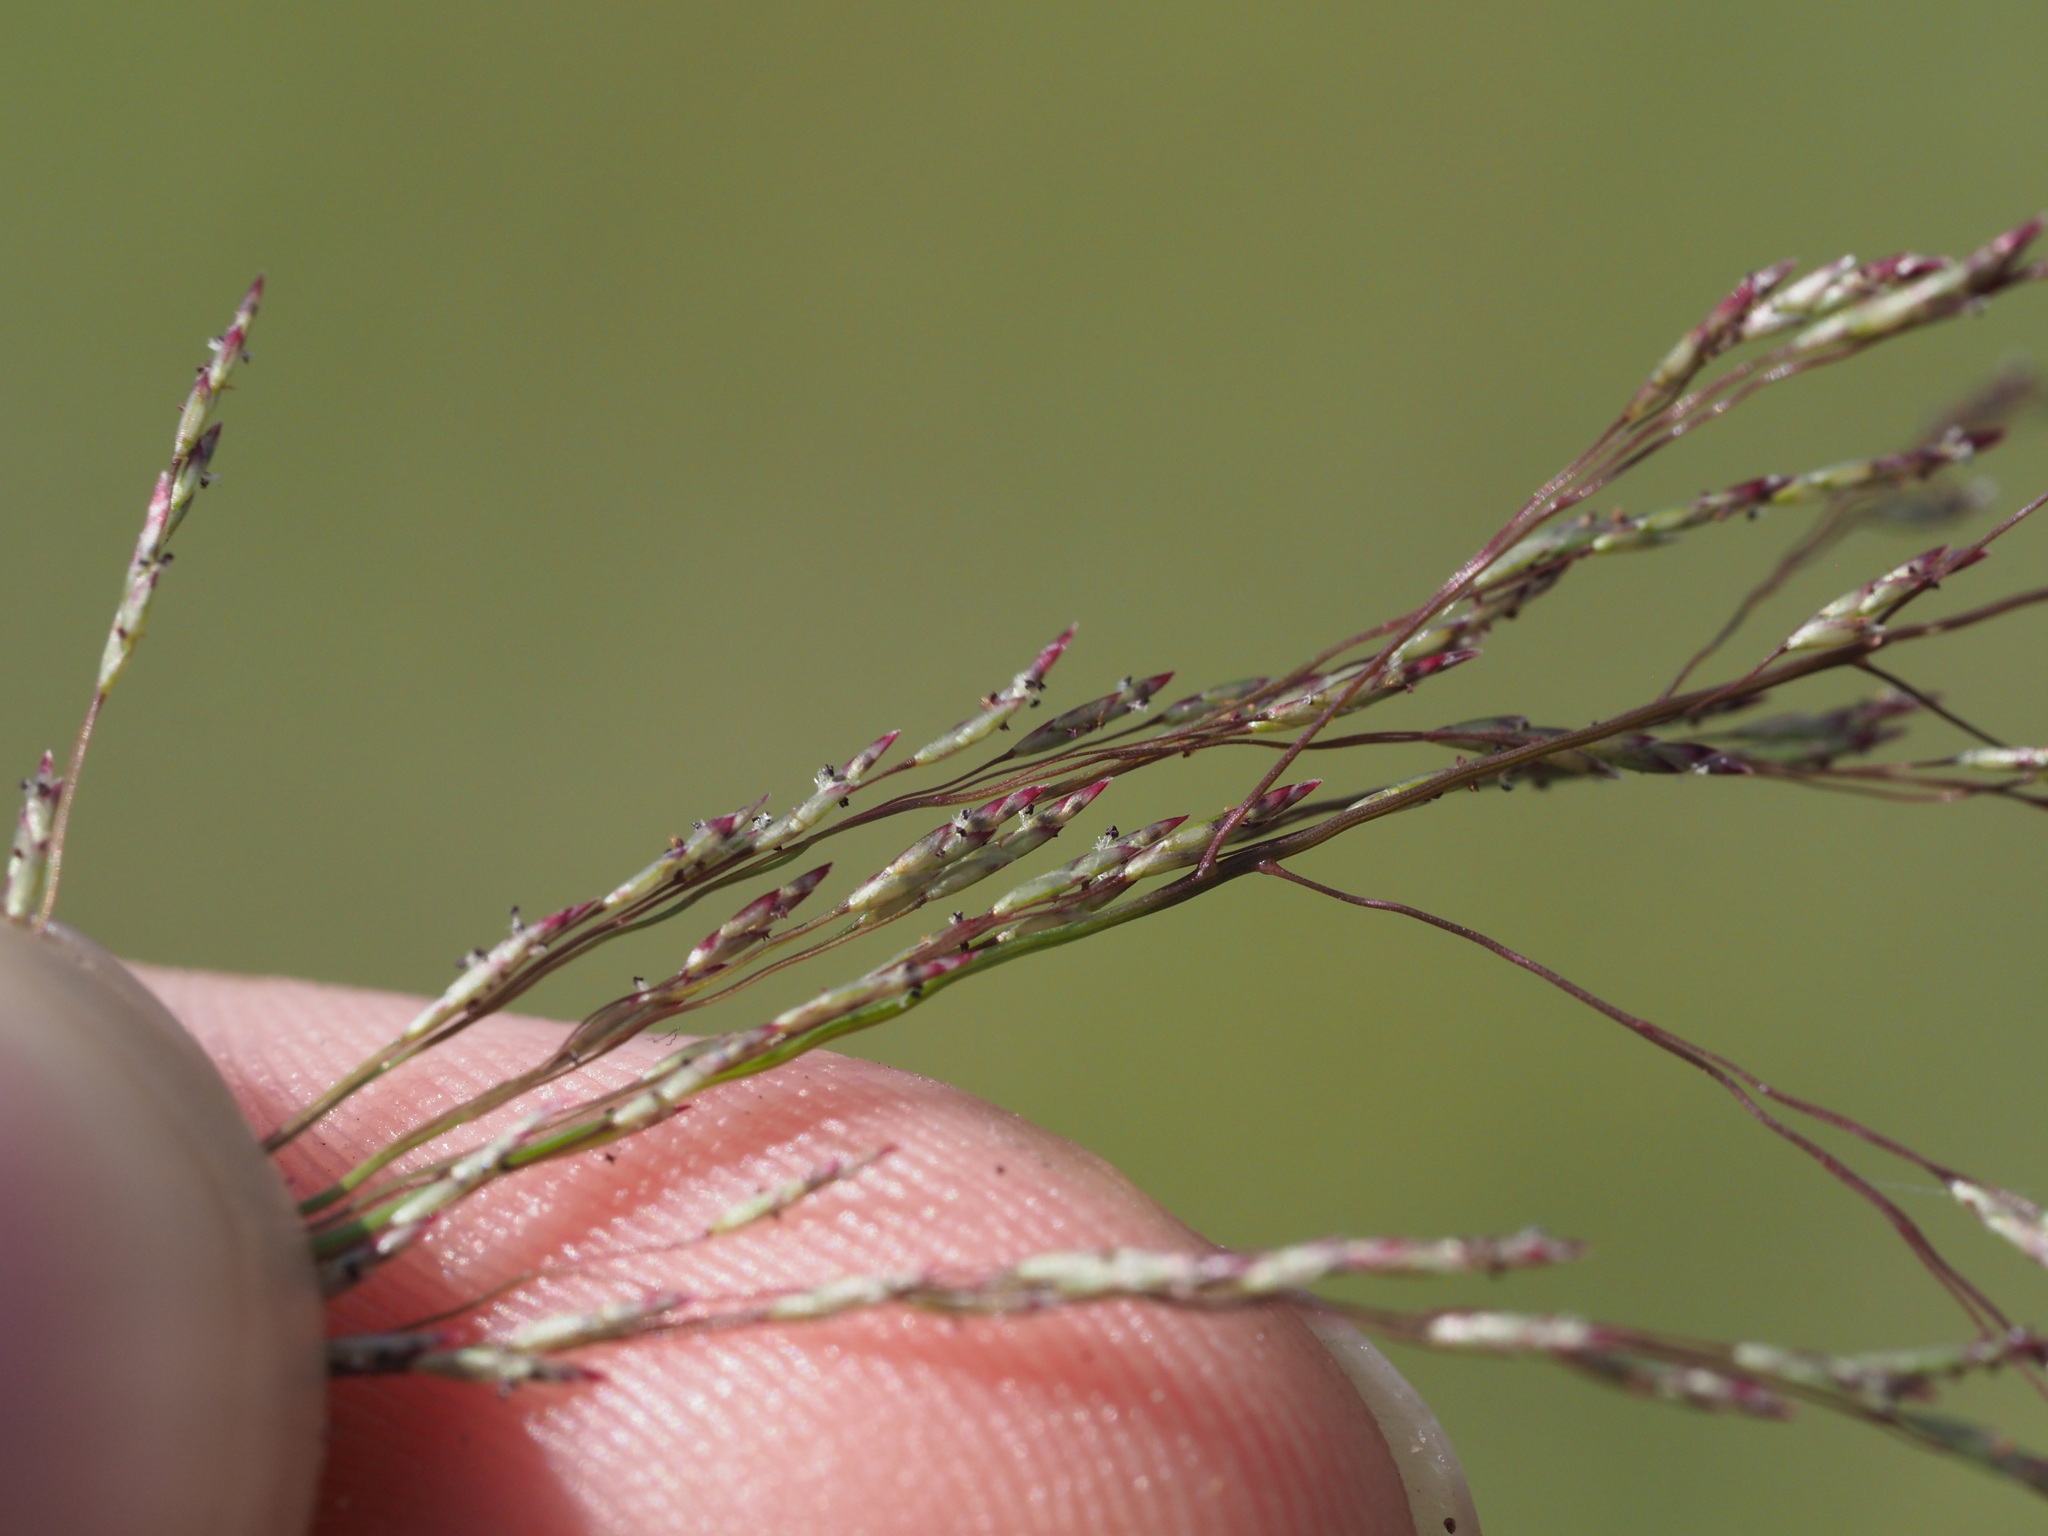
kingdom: Plantae
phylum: Tracheophyta
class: Liliopsida
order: Poales
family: Poaceae
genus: Eragrostis
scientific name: Eragrostis pilosa
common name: Indian lovegrass
